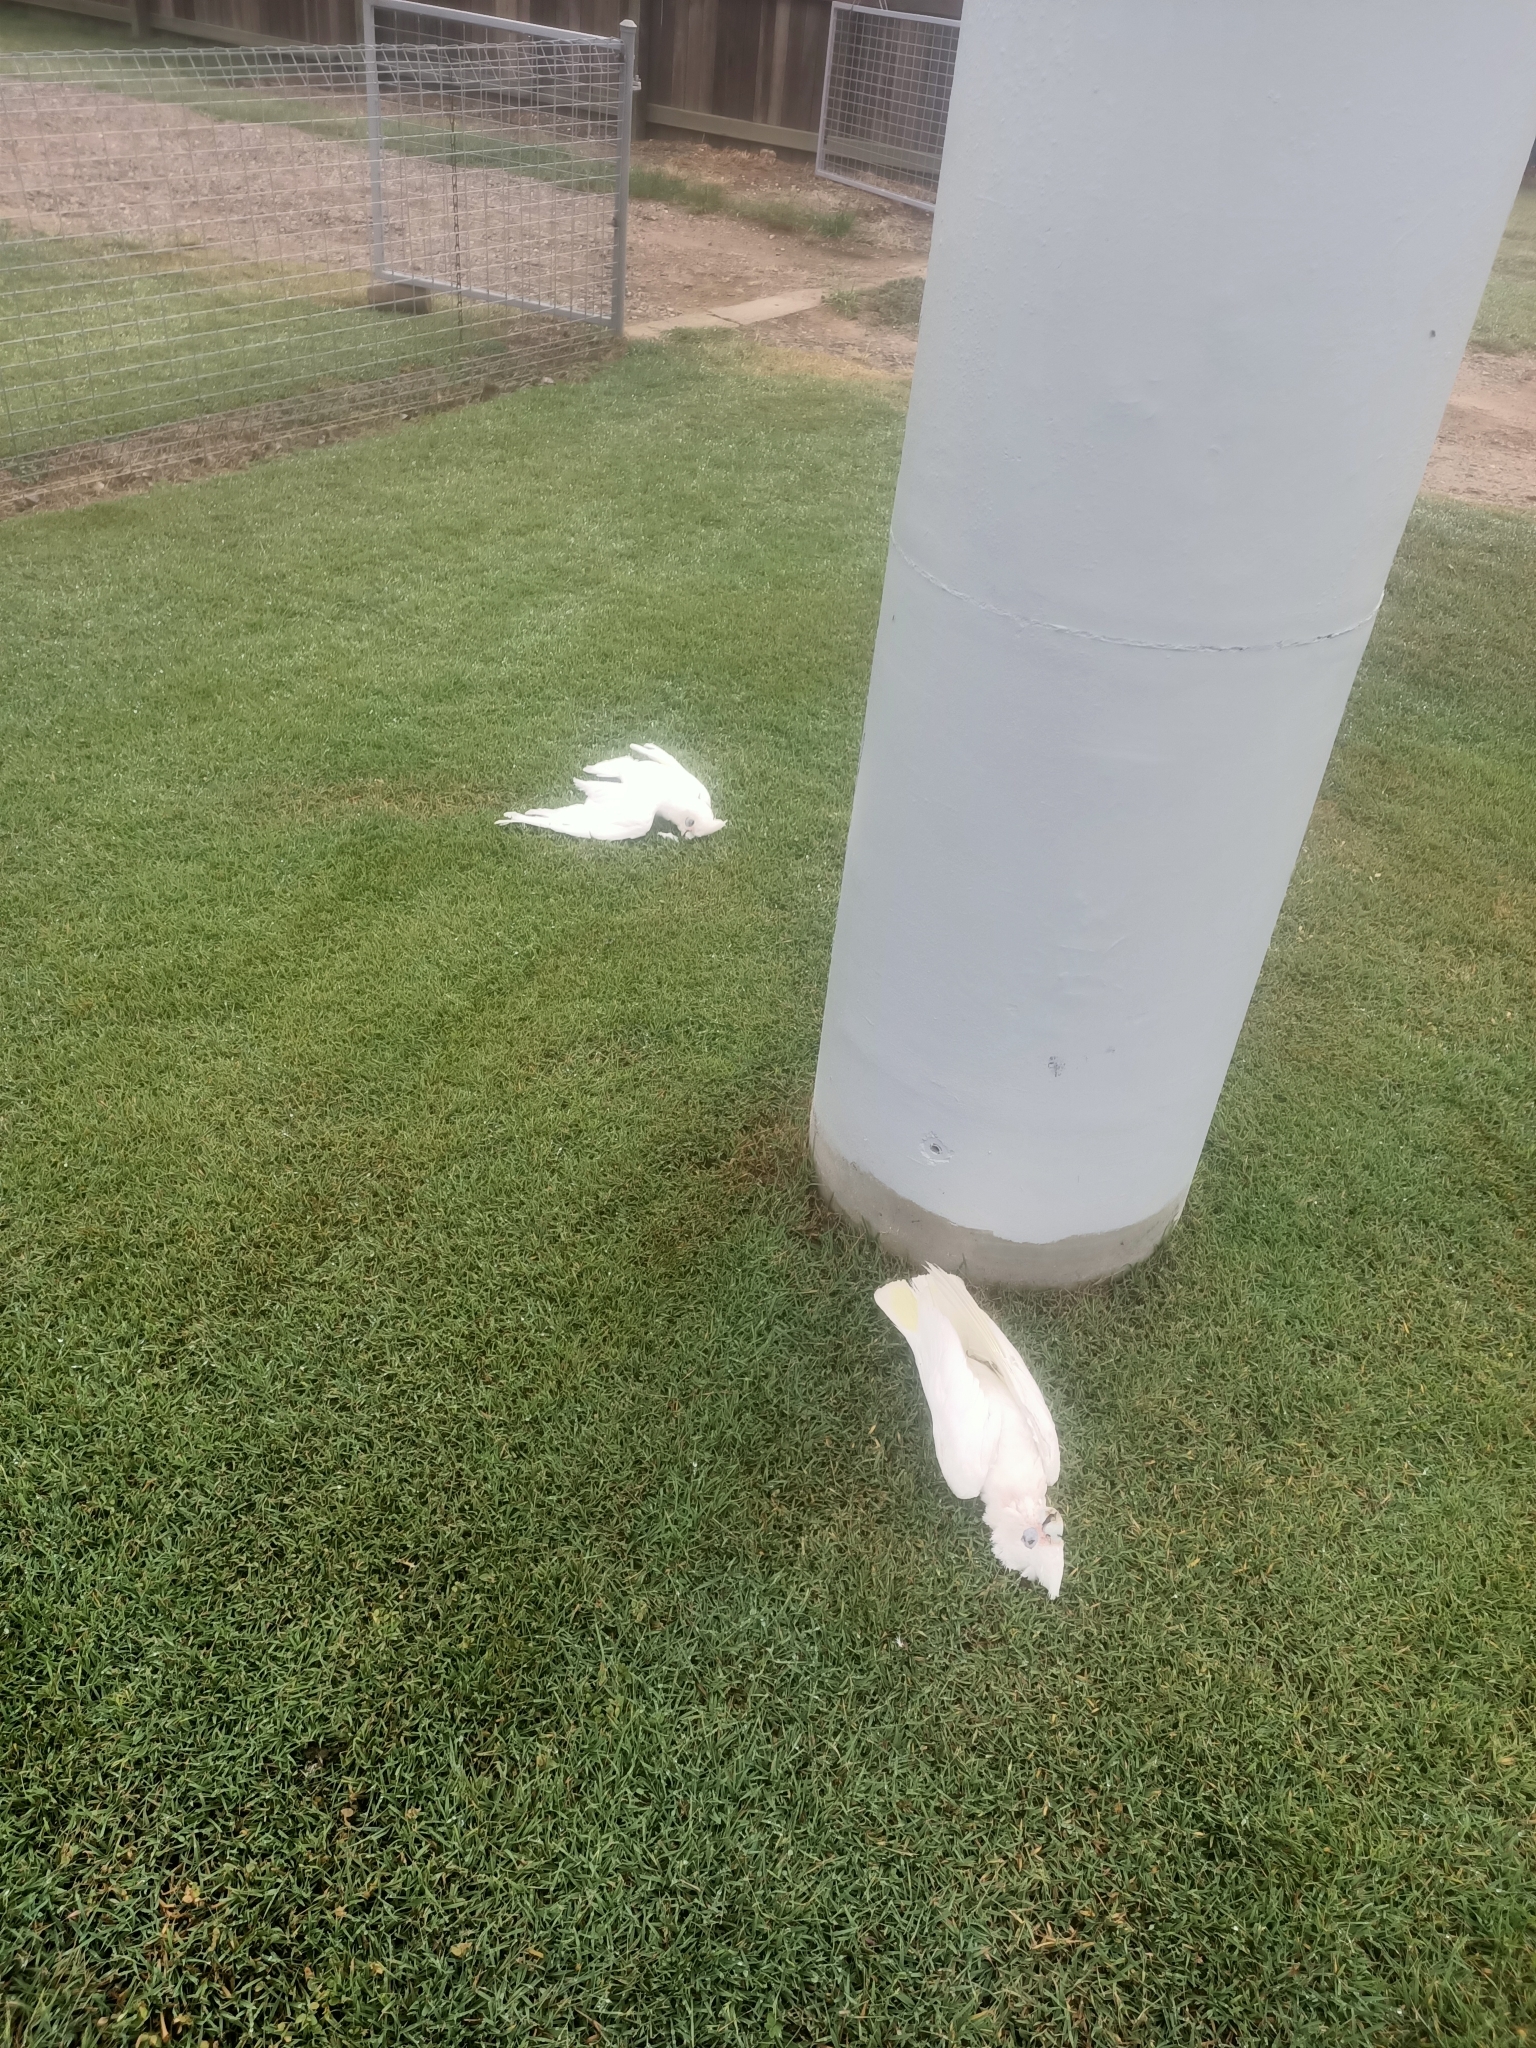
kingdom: Animalia
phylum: Chordata
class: Aves
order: Psittaciformes
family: Psittacidae
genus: Cacatua
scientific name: Cacatua sanguinea
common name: Little corella
